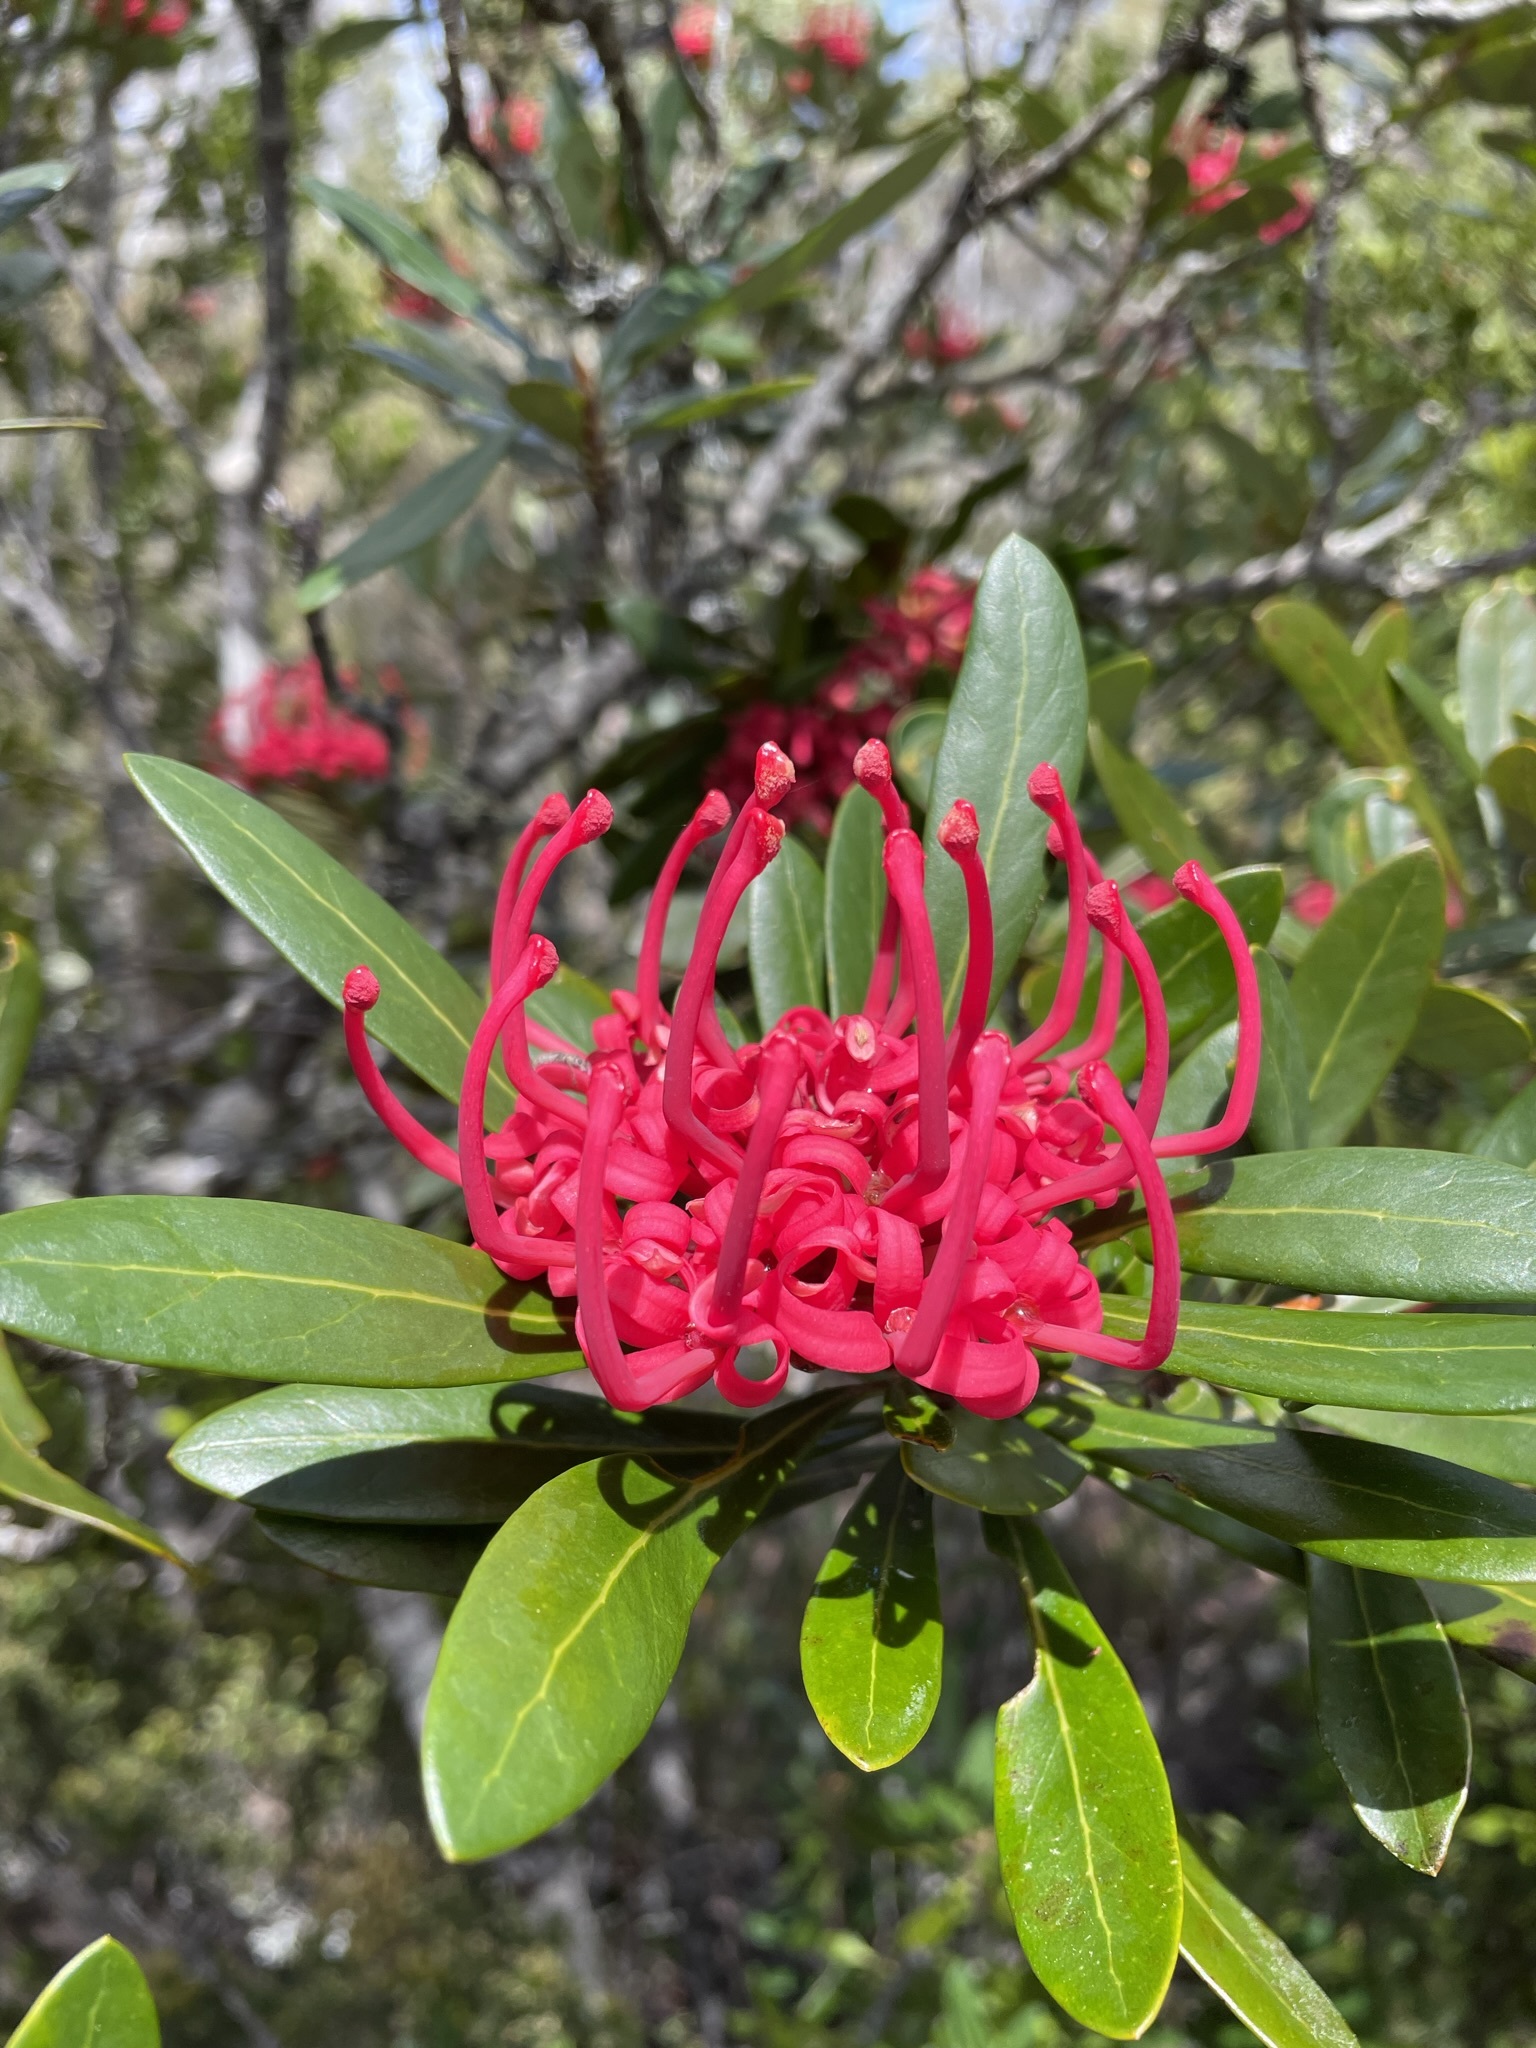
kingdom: Plantae
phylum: Tracheophyta
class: Magnoliopsida
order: Proteales
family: Proteaceae
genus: Telopea
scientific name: Telopea truncata
